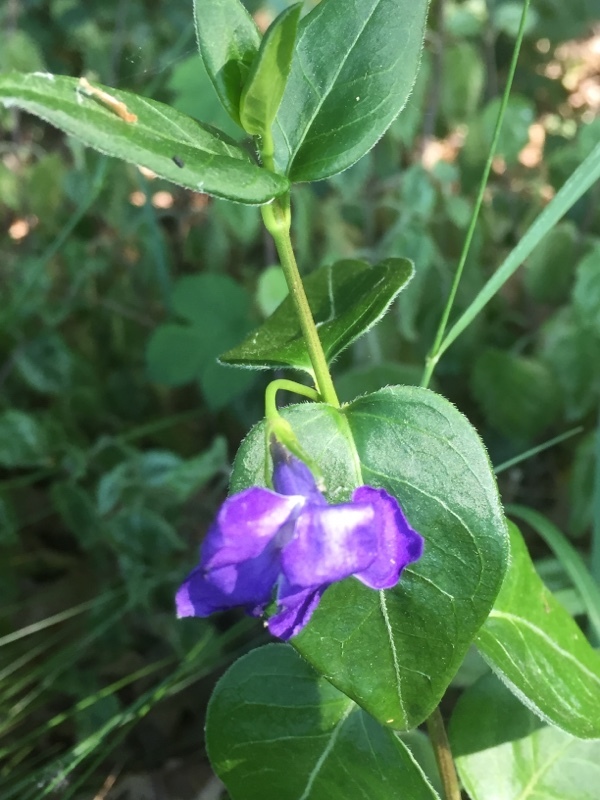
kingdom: Plantae
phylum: Tracheophyta
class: Magnoliopsida
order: Gentianales
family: Apocynaceae
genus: Vinca
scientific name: Vinca major
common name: Greater periwinkle
